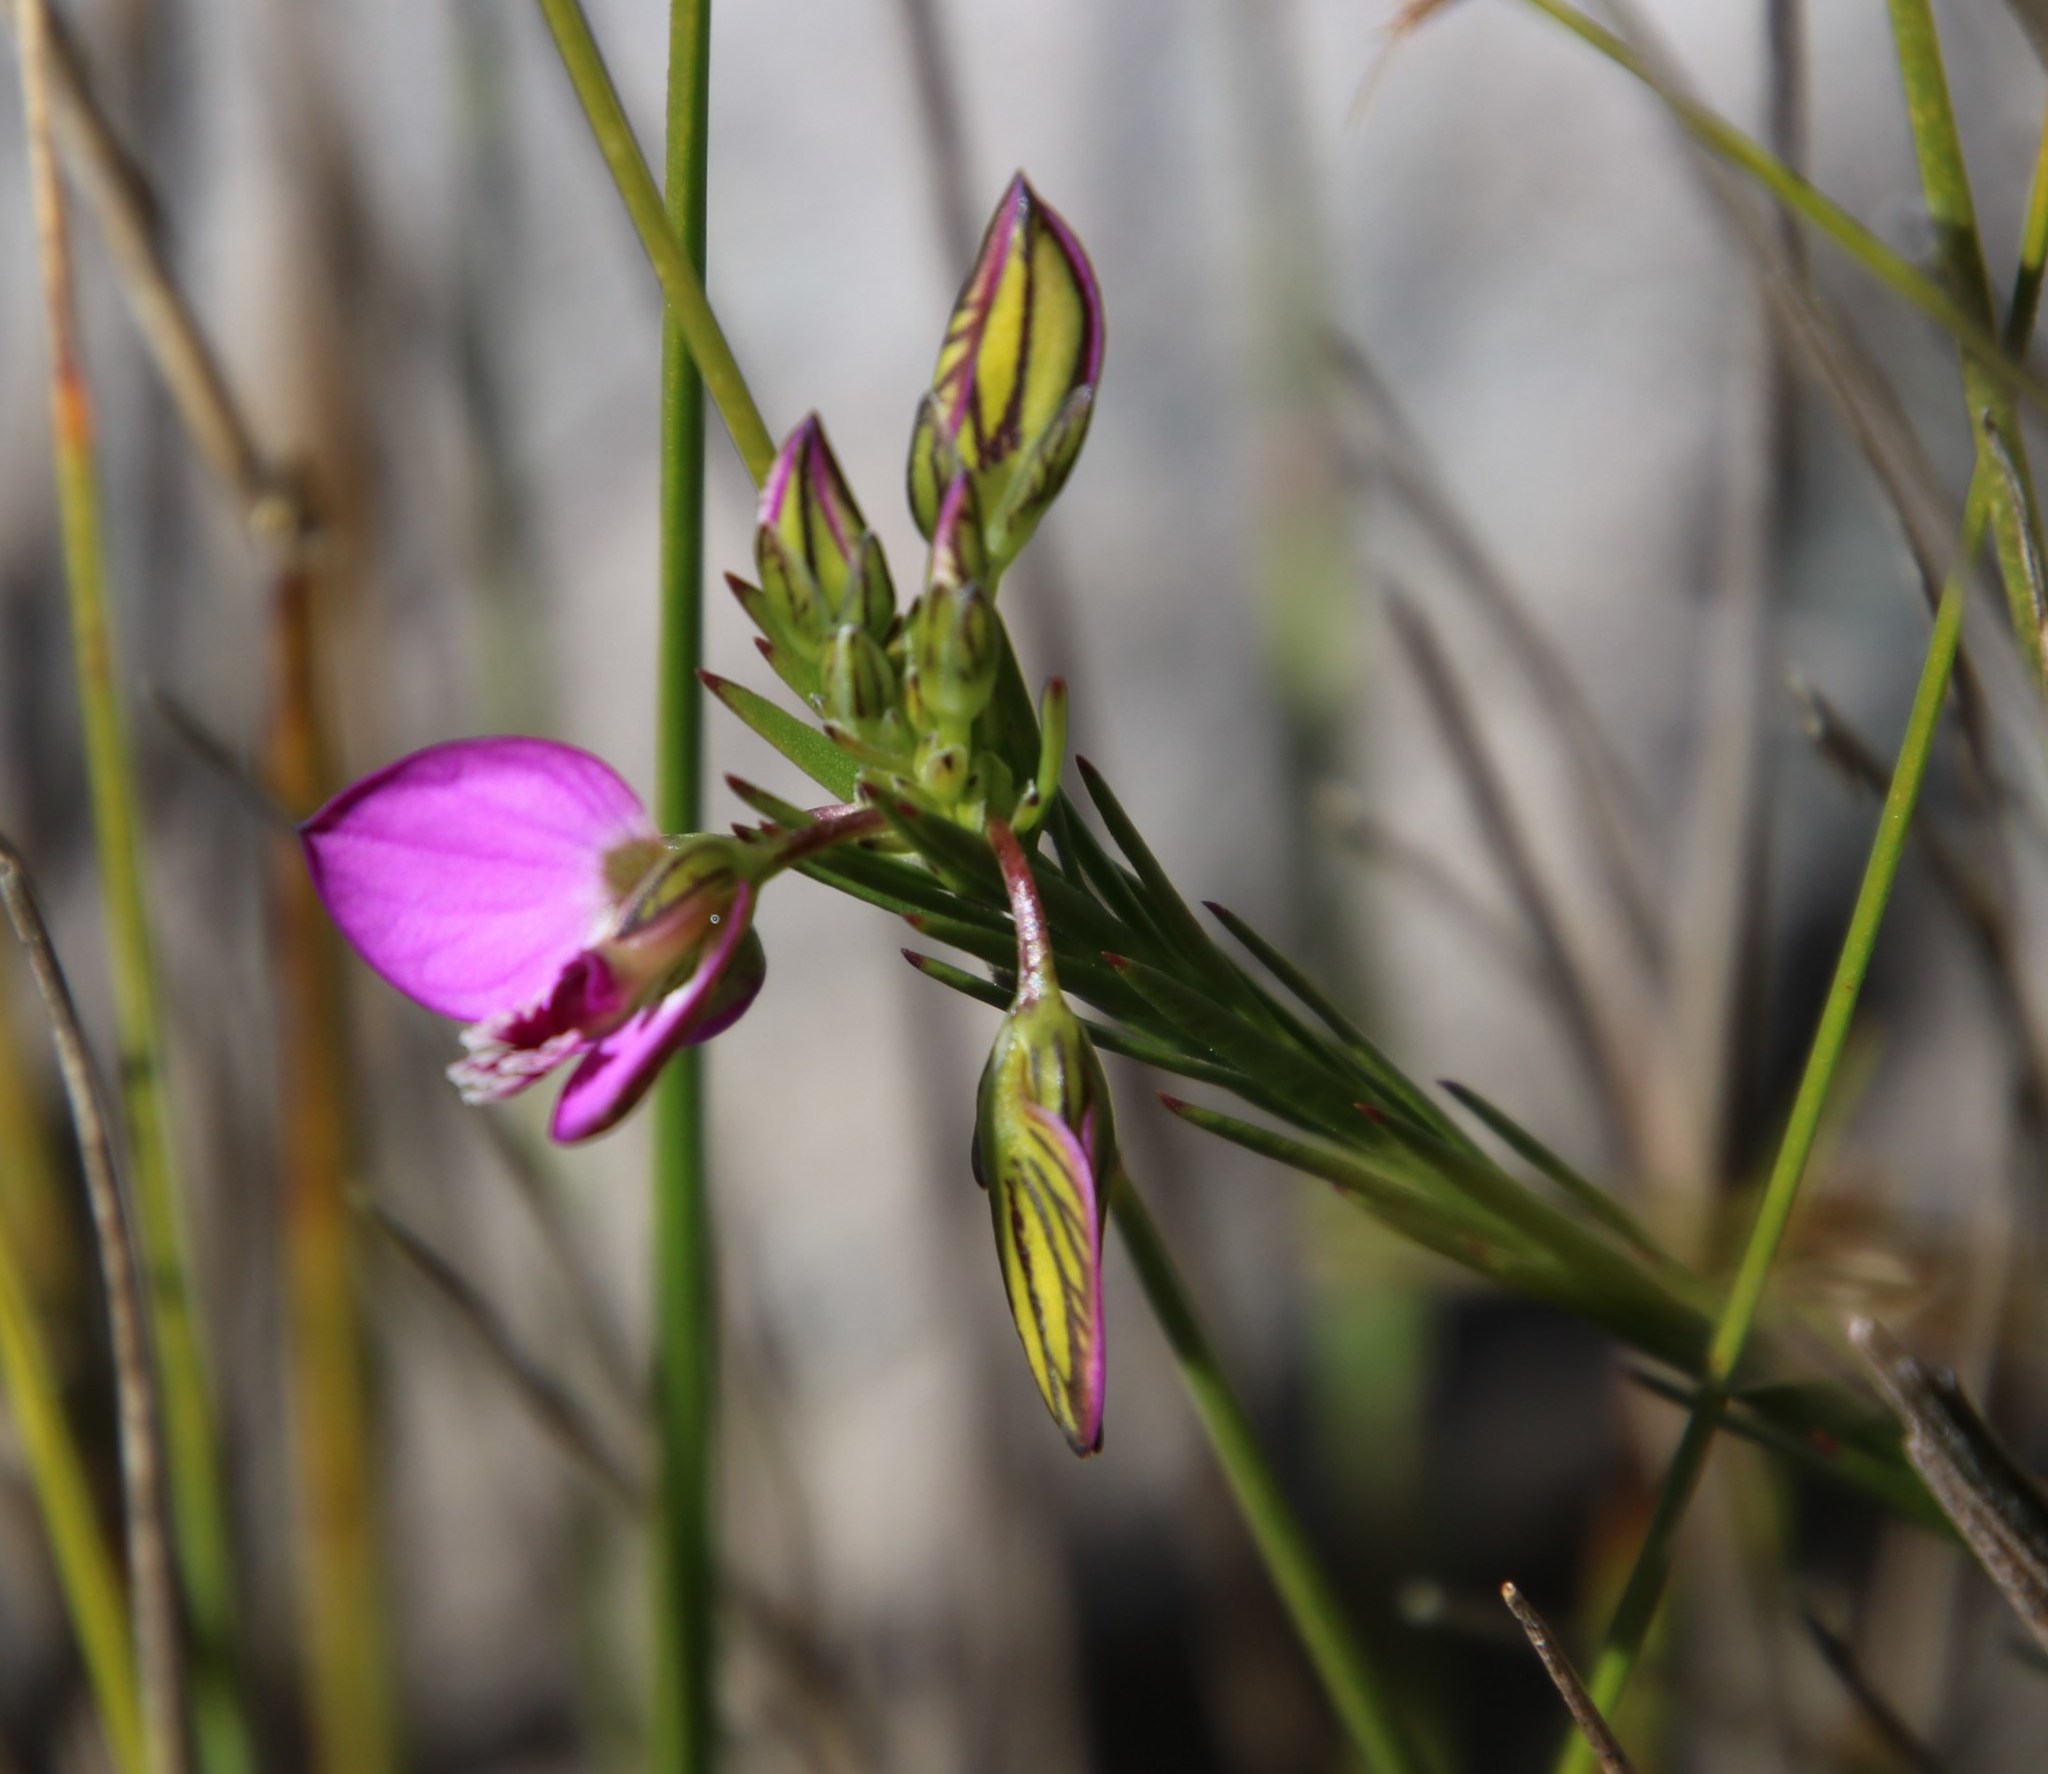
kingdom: Plantae
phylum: Tracheophyta
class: Magnoliopsida
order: Fabales
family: Polygalaceae
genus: Polygala
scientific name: Polygala recognita
